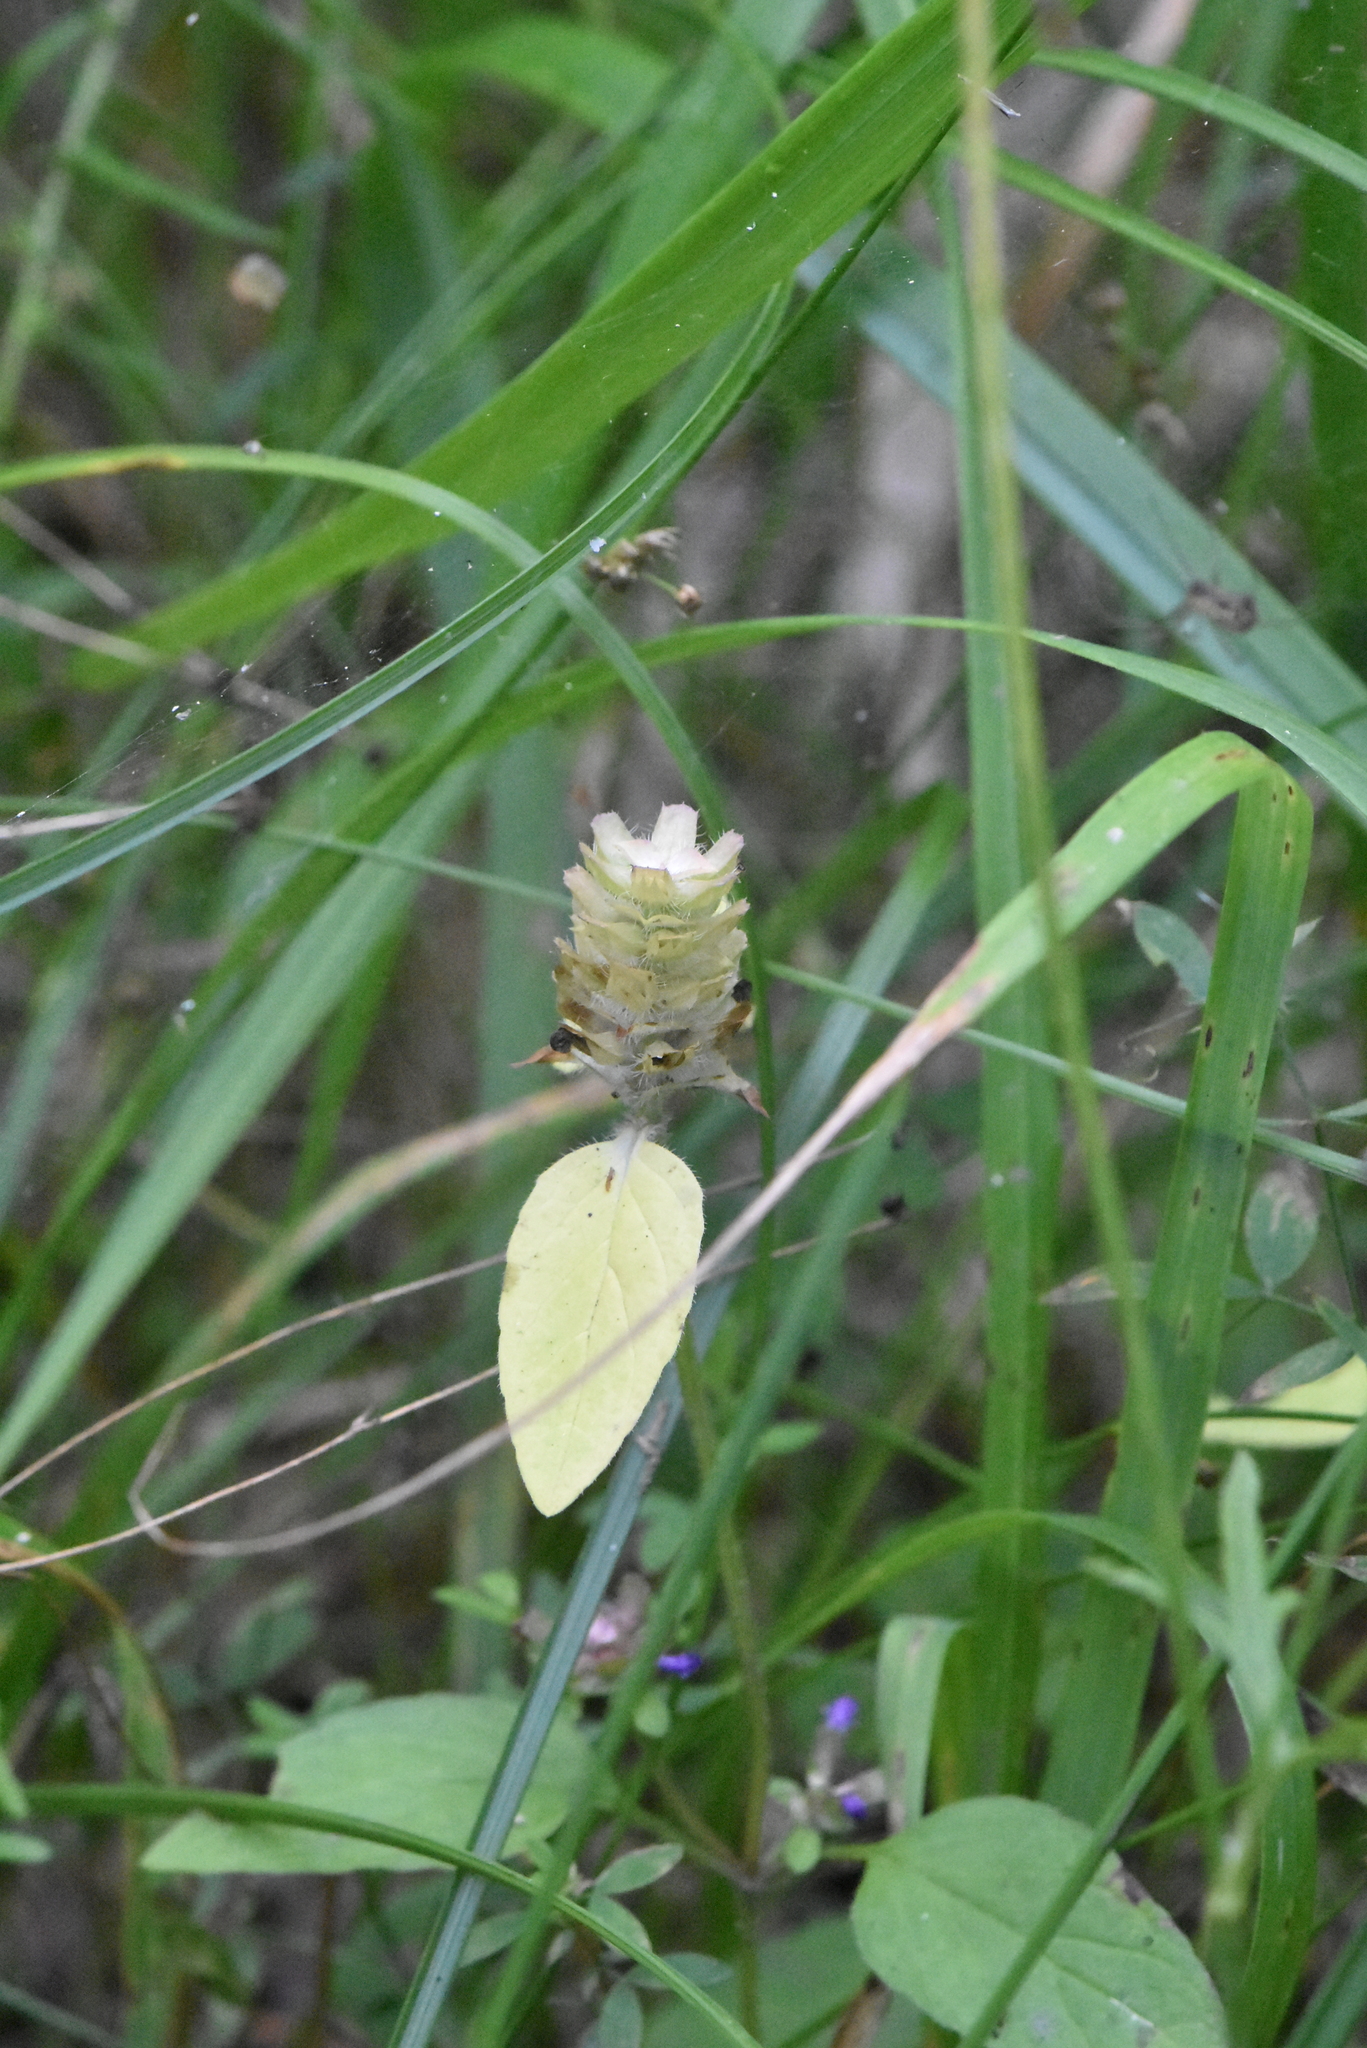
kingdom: Plantae
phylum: Tracheophyta
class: Magnoliopsida
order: Lamiales
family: Lamiaceae
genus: Prunella
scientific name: Prunella vulgaris
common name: Heal-all
